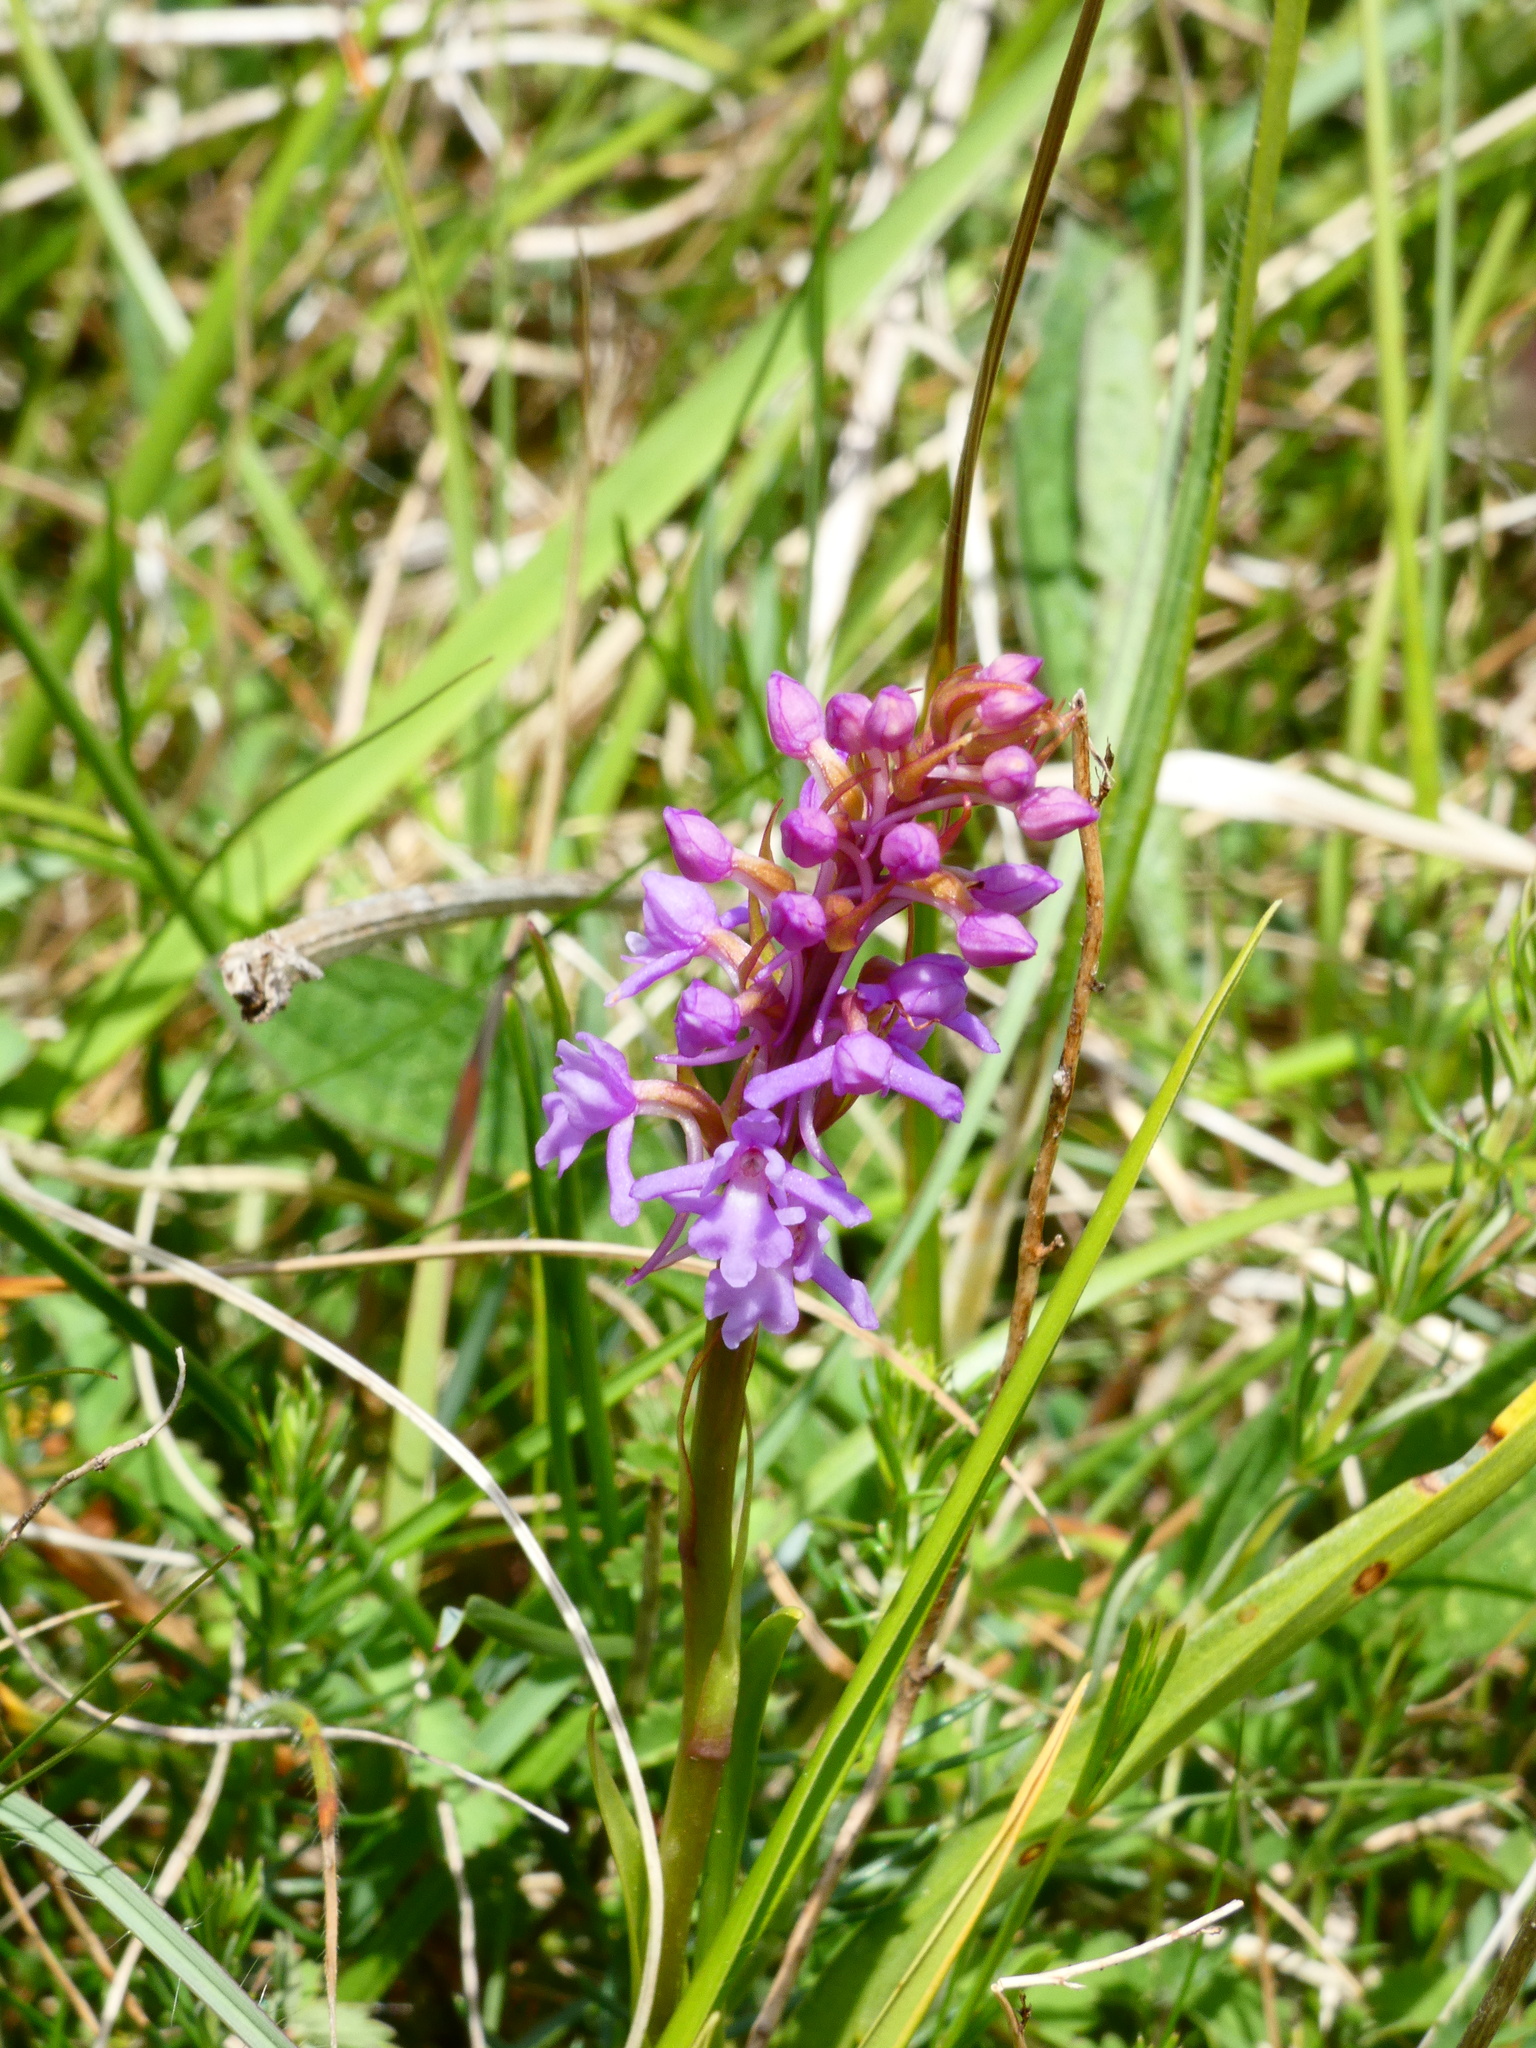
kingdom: Plantae
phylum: Tracheophyta
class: Liliopsida
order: Asparagales
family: Orchidaceae
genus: Gymnadenia
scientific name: Gymnadenia conopsea
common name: Fragrant orchid
